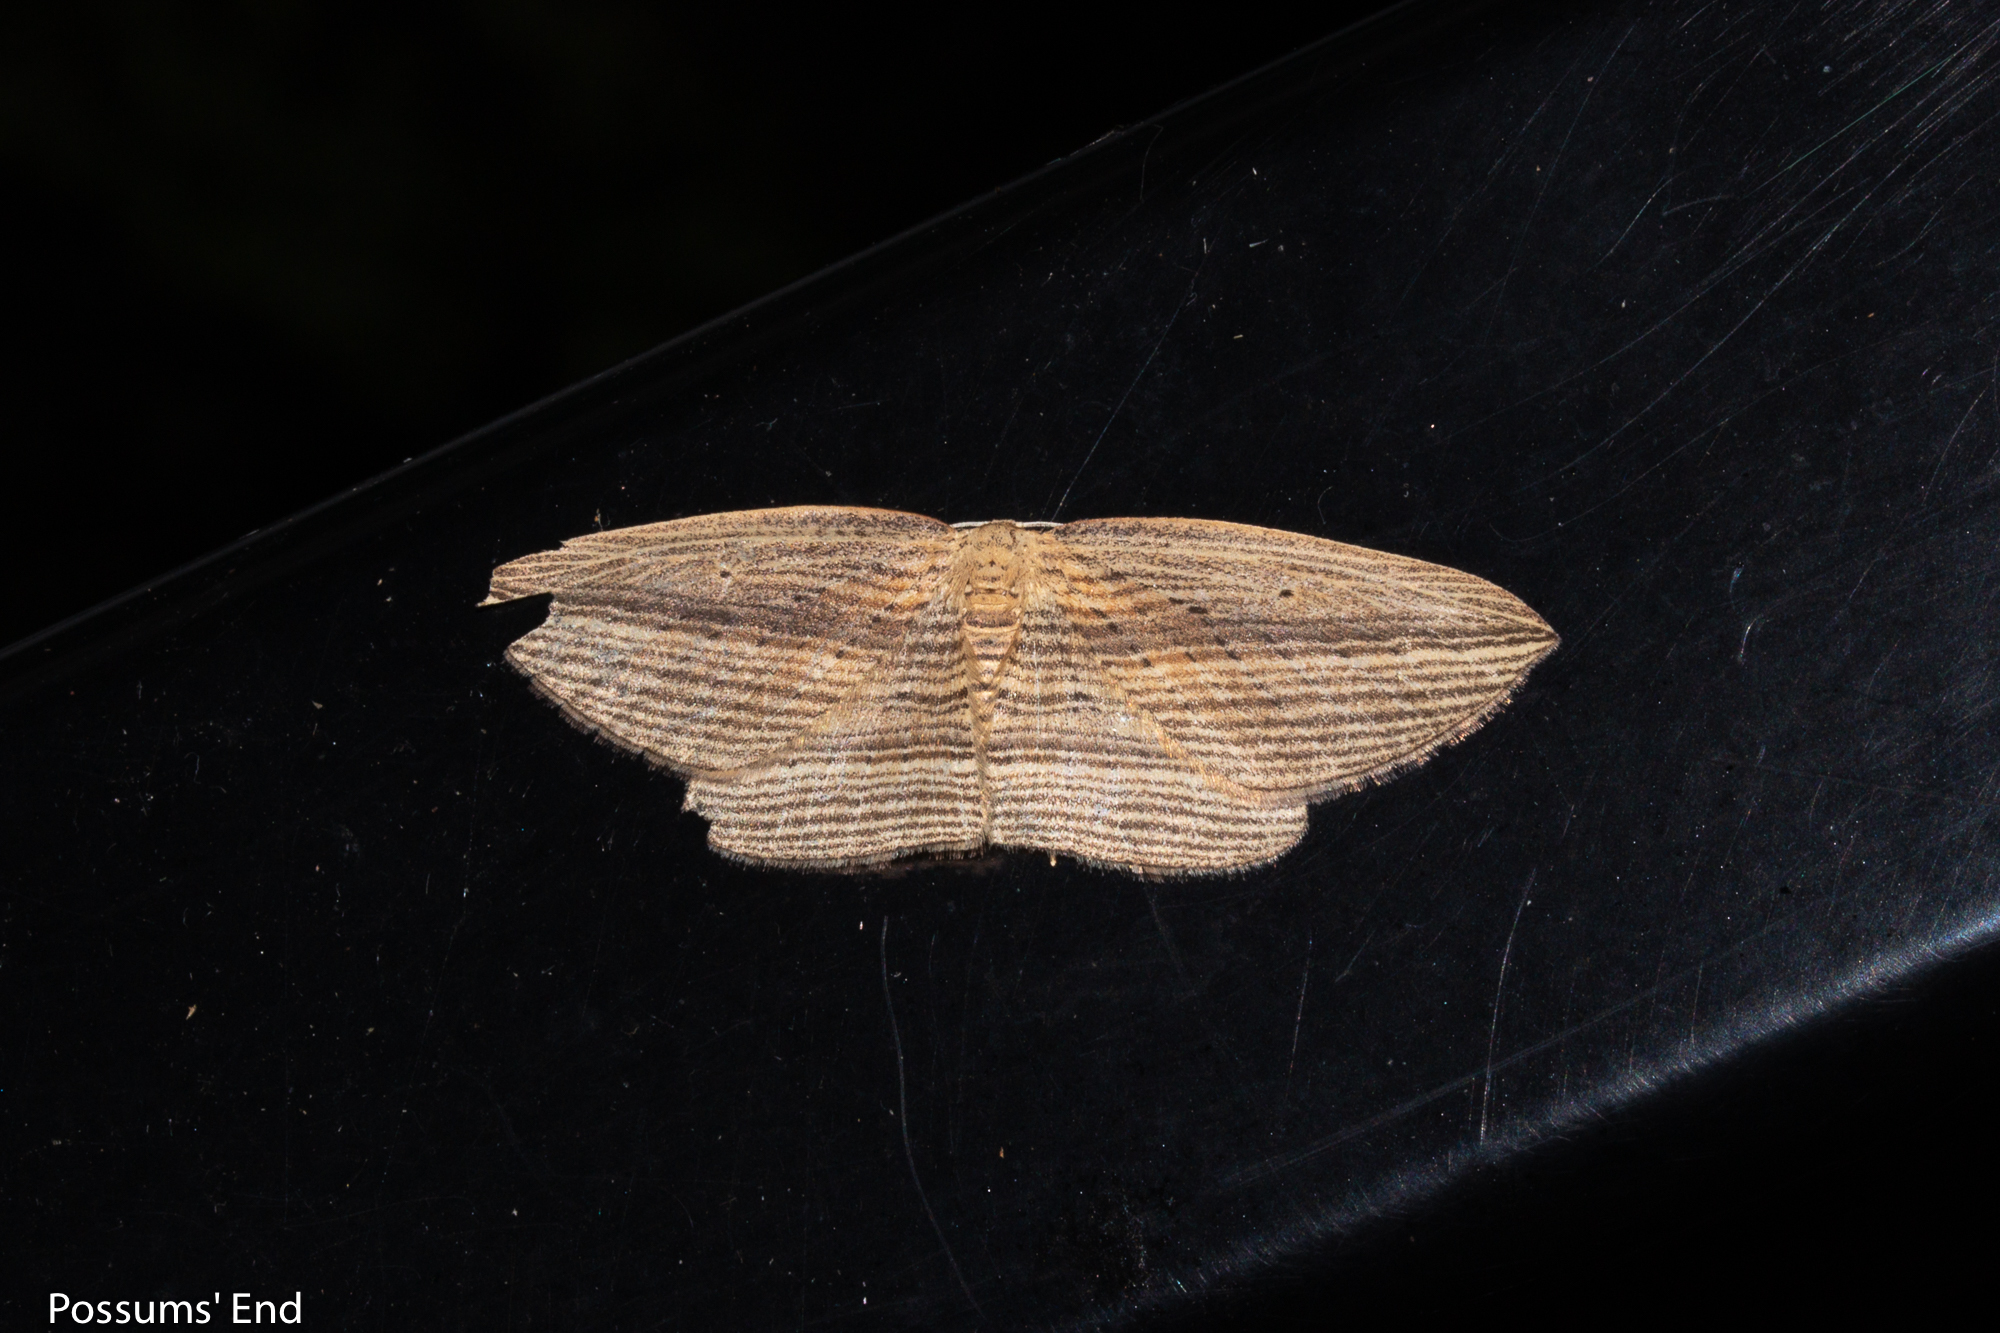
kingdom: Animalia
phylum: Arthropoda
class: Insecta
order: Lepidoptera
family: Geometridae
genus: Epiphryne
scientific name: Epiphryne verriculata
